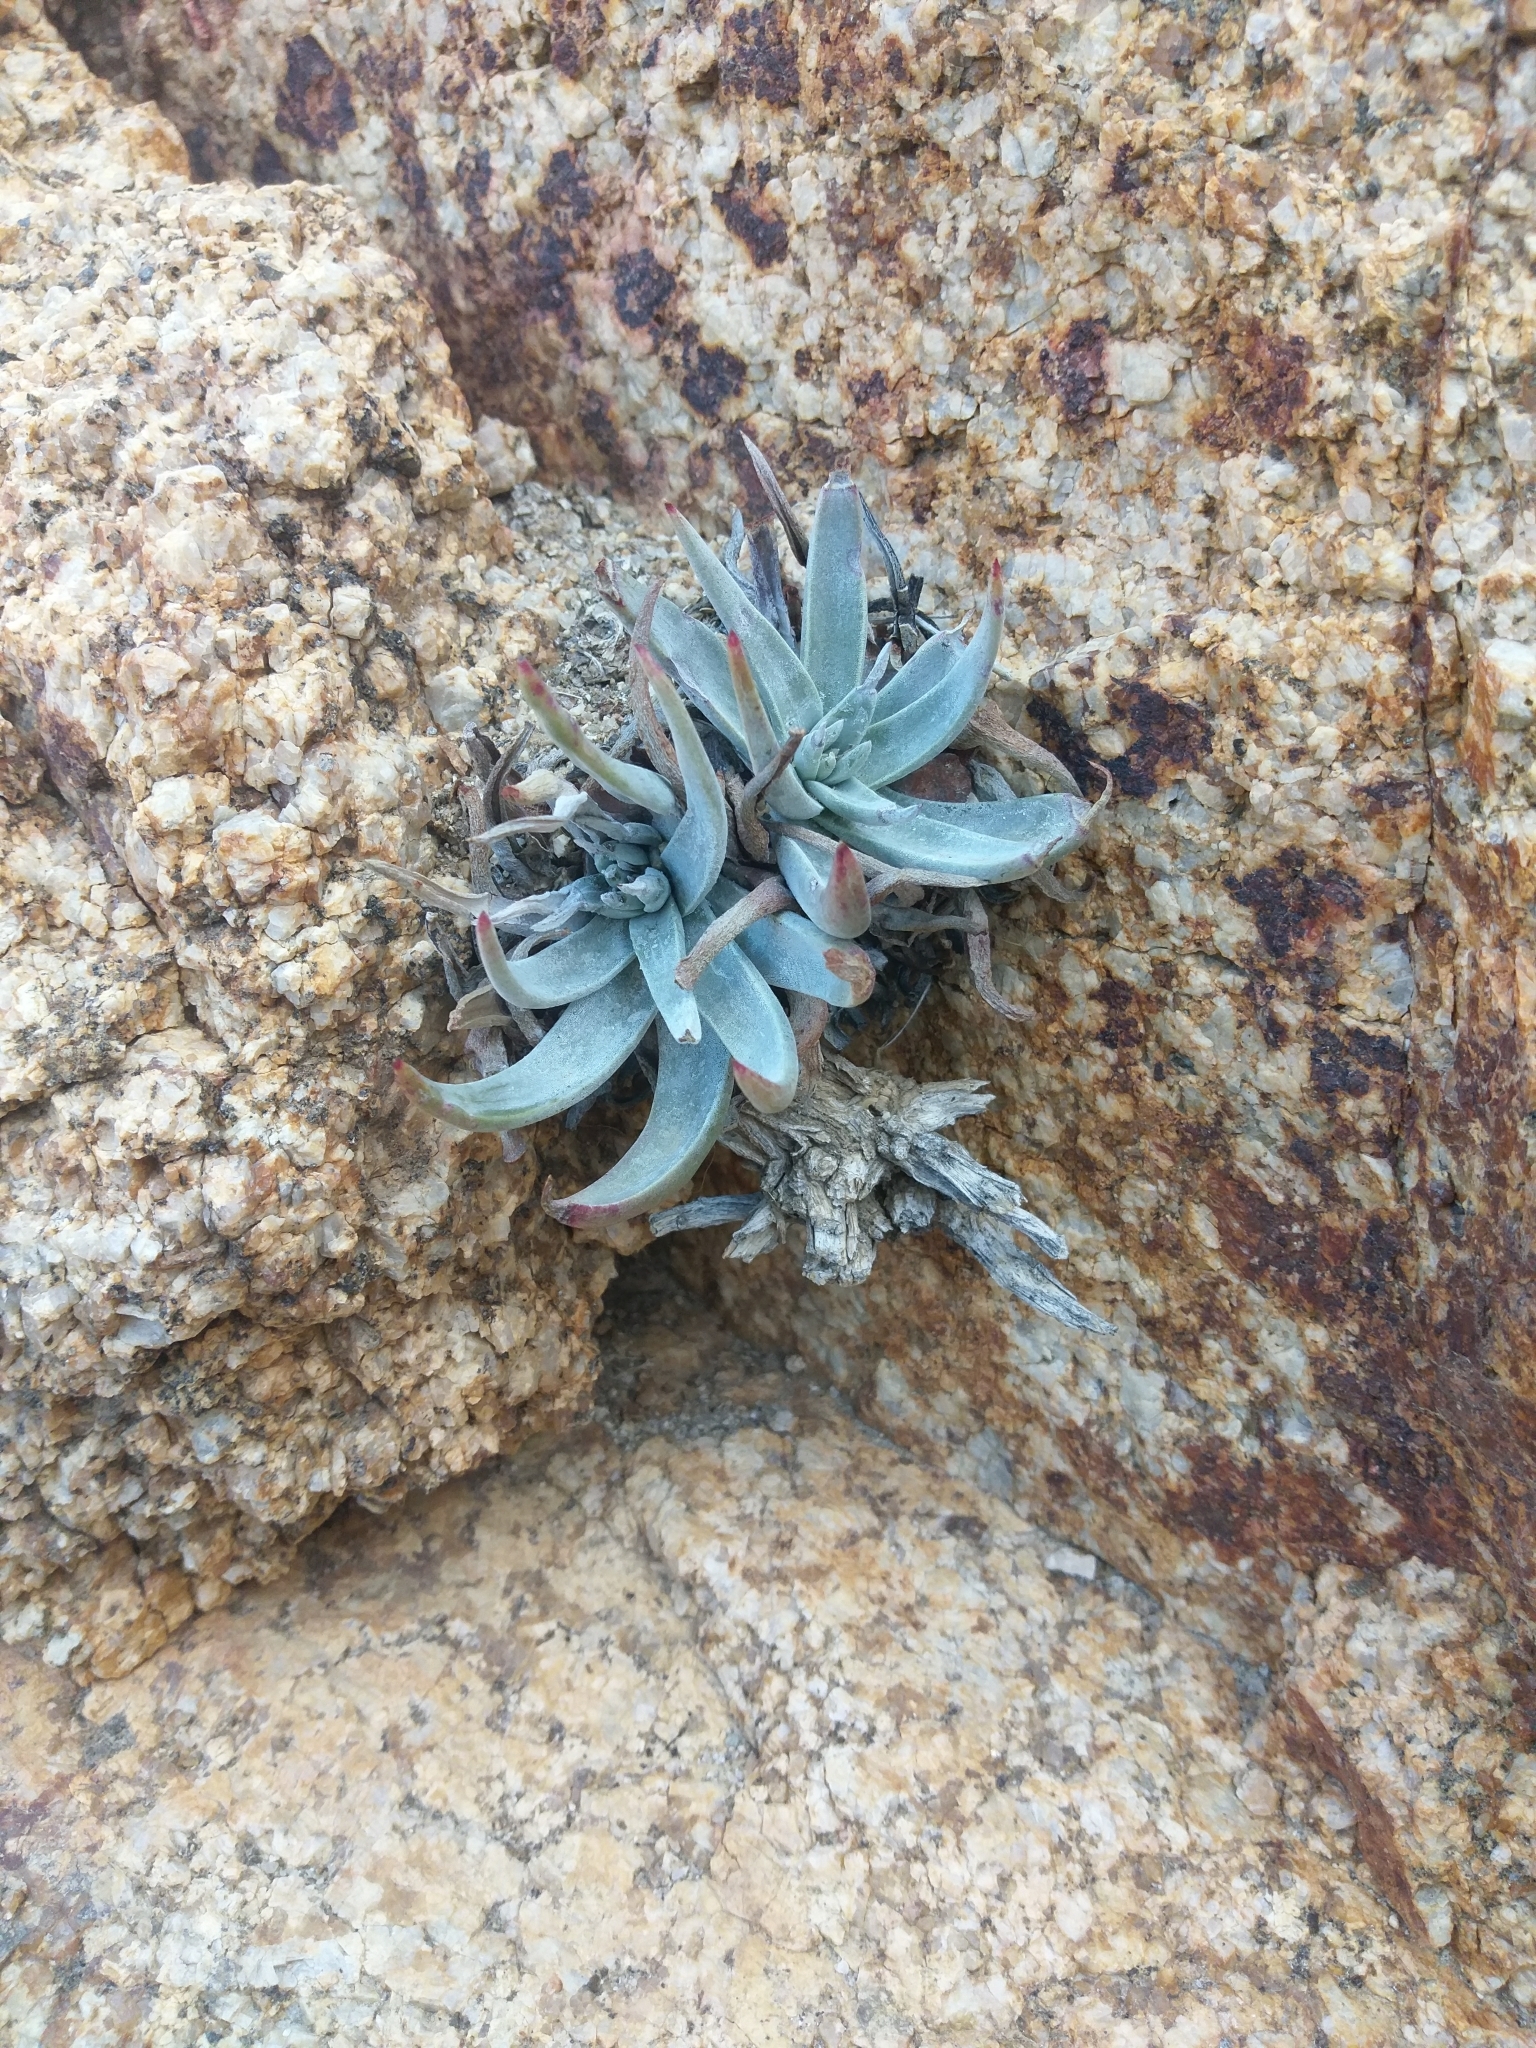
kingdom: Plantae
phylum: Tracheophyta
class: Magnoliopsida
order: Saxifragales
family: Crassulaceae
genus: Dudleya
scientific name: Dudleya saxosa
